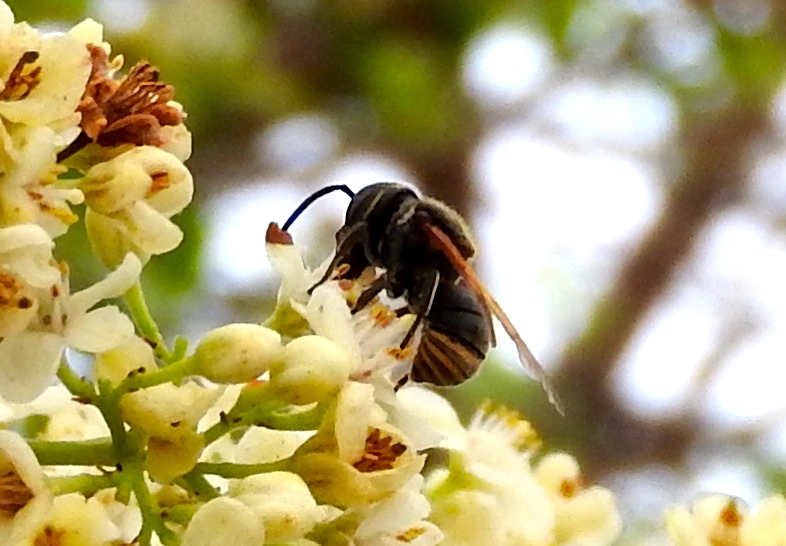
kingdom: Animalia
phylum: Arthropoda
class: Insecta
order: Hymenoptera
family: Megachilidae
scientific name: Megachilidae
